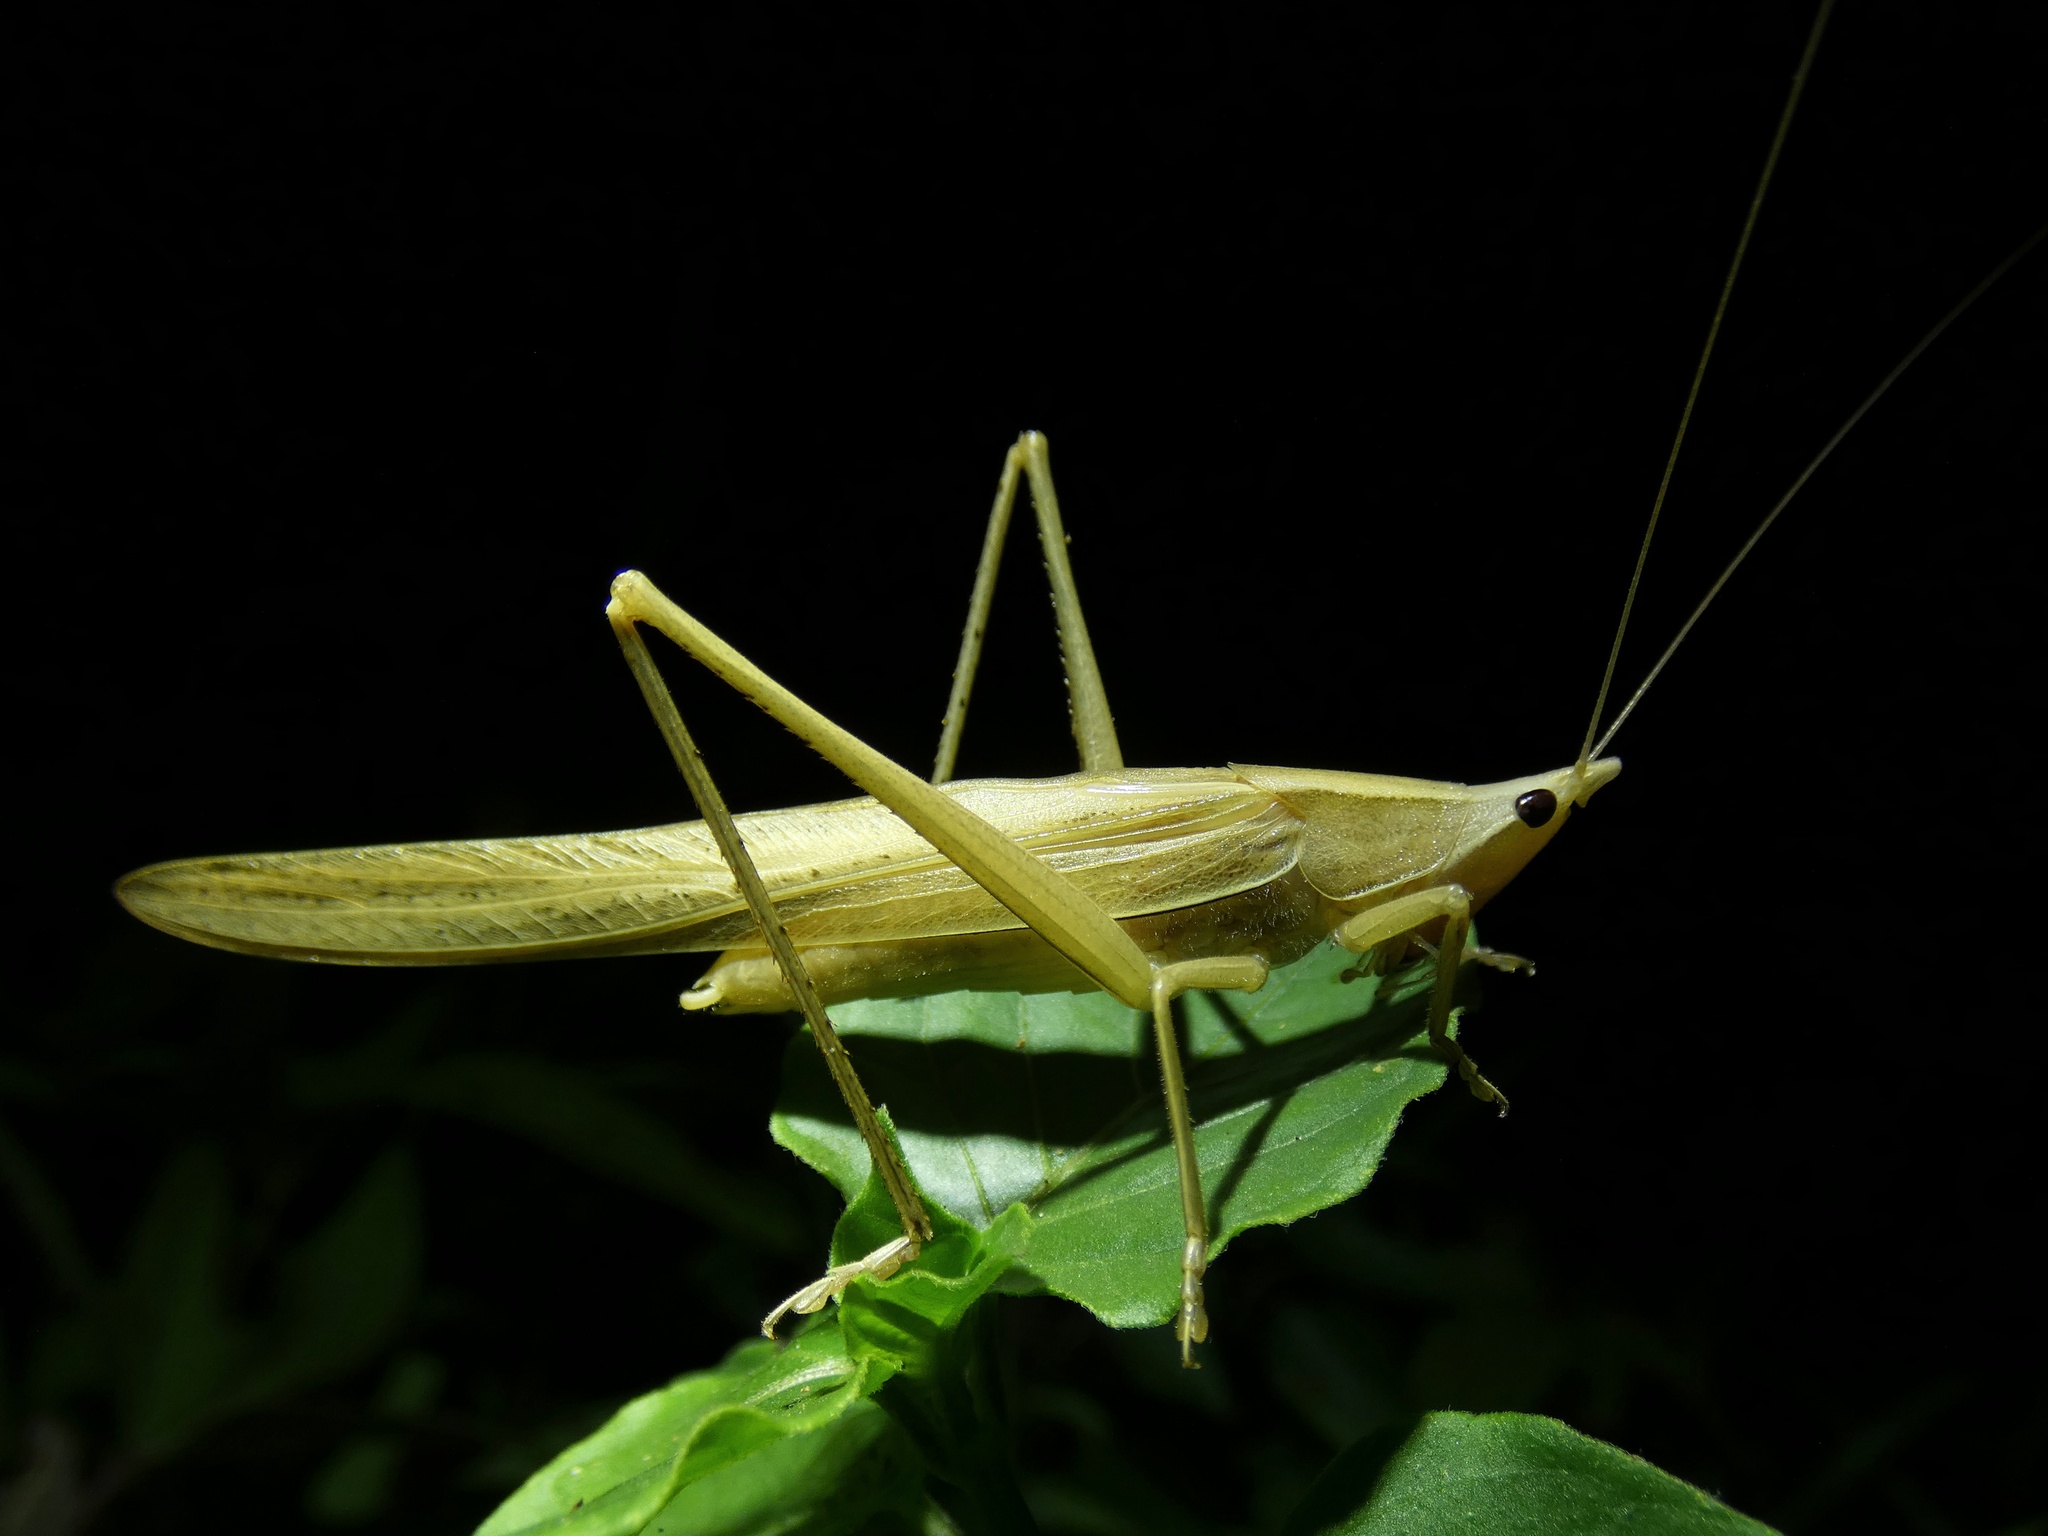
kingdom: Animalia
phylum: Arthropoda
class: Insecta
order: Orthoptera
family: Tettigoniidae
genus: Euconocephalus
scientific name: Euconocephalus nasutus
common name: Grasshopper
